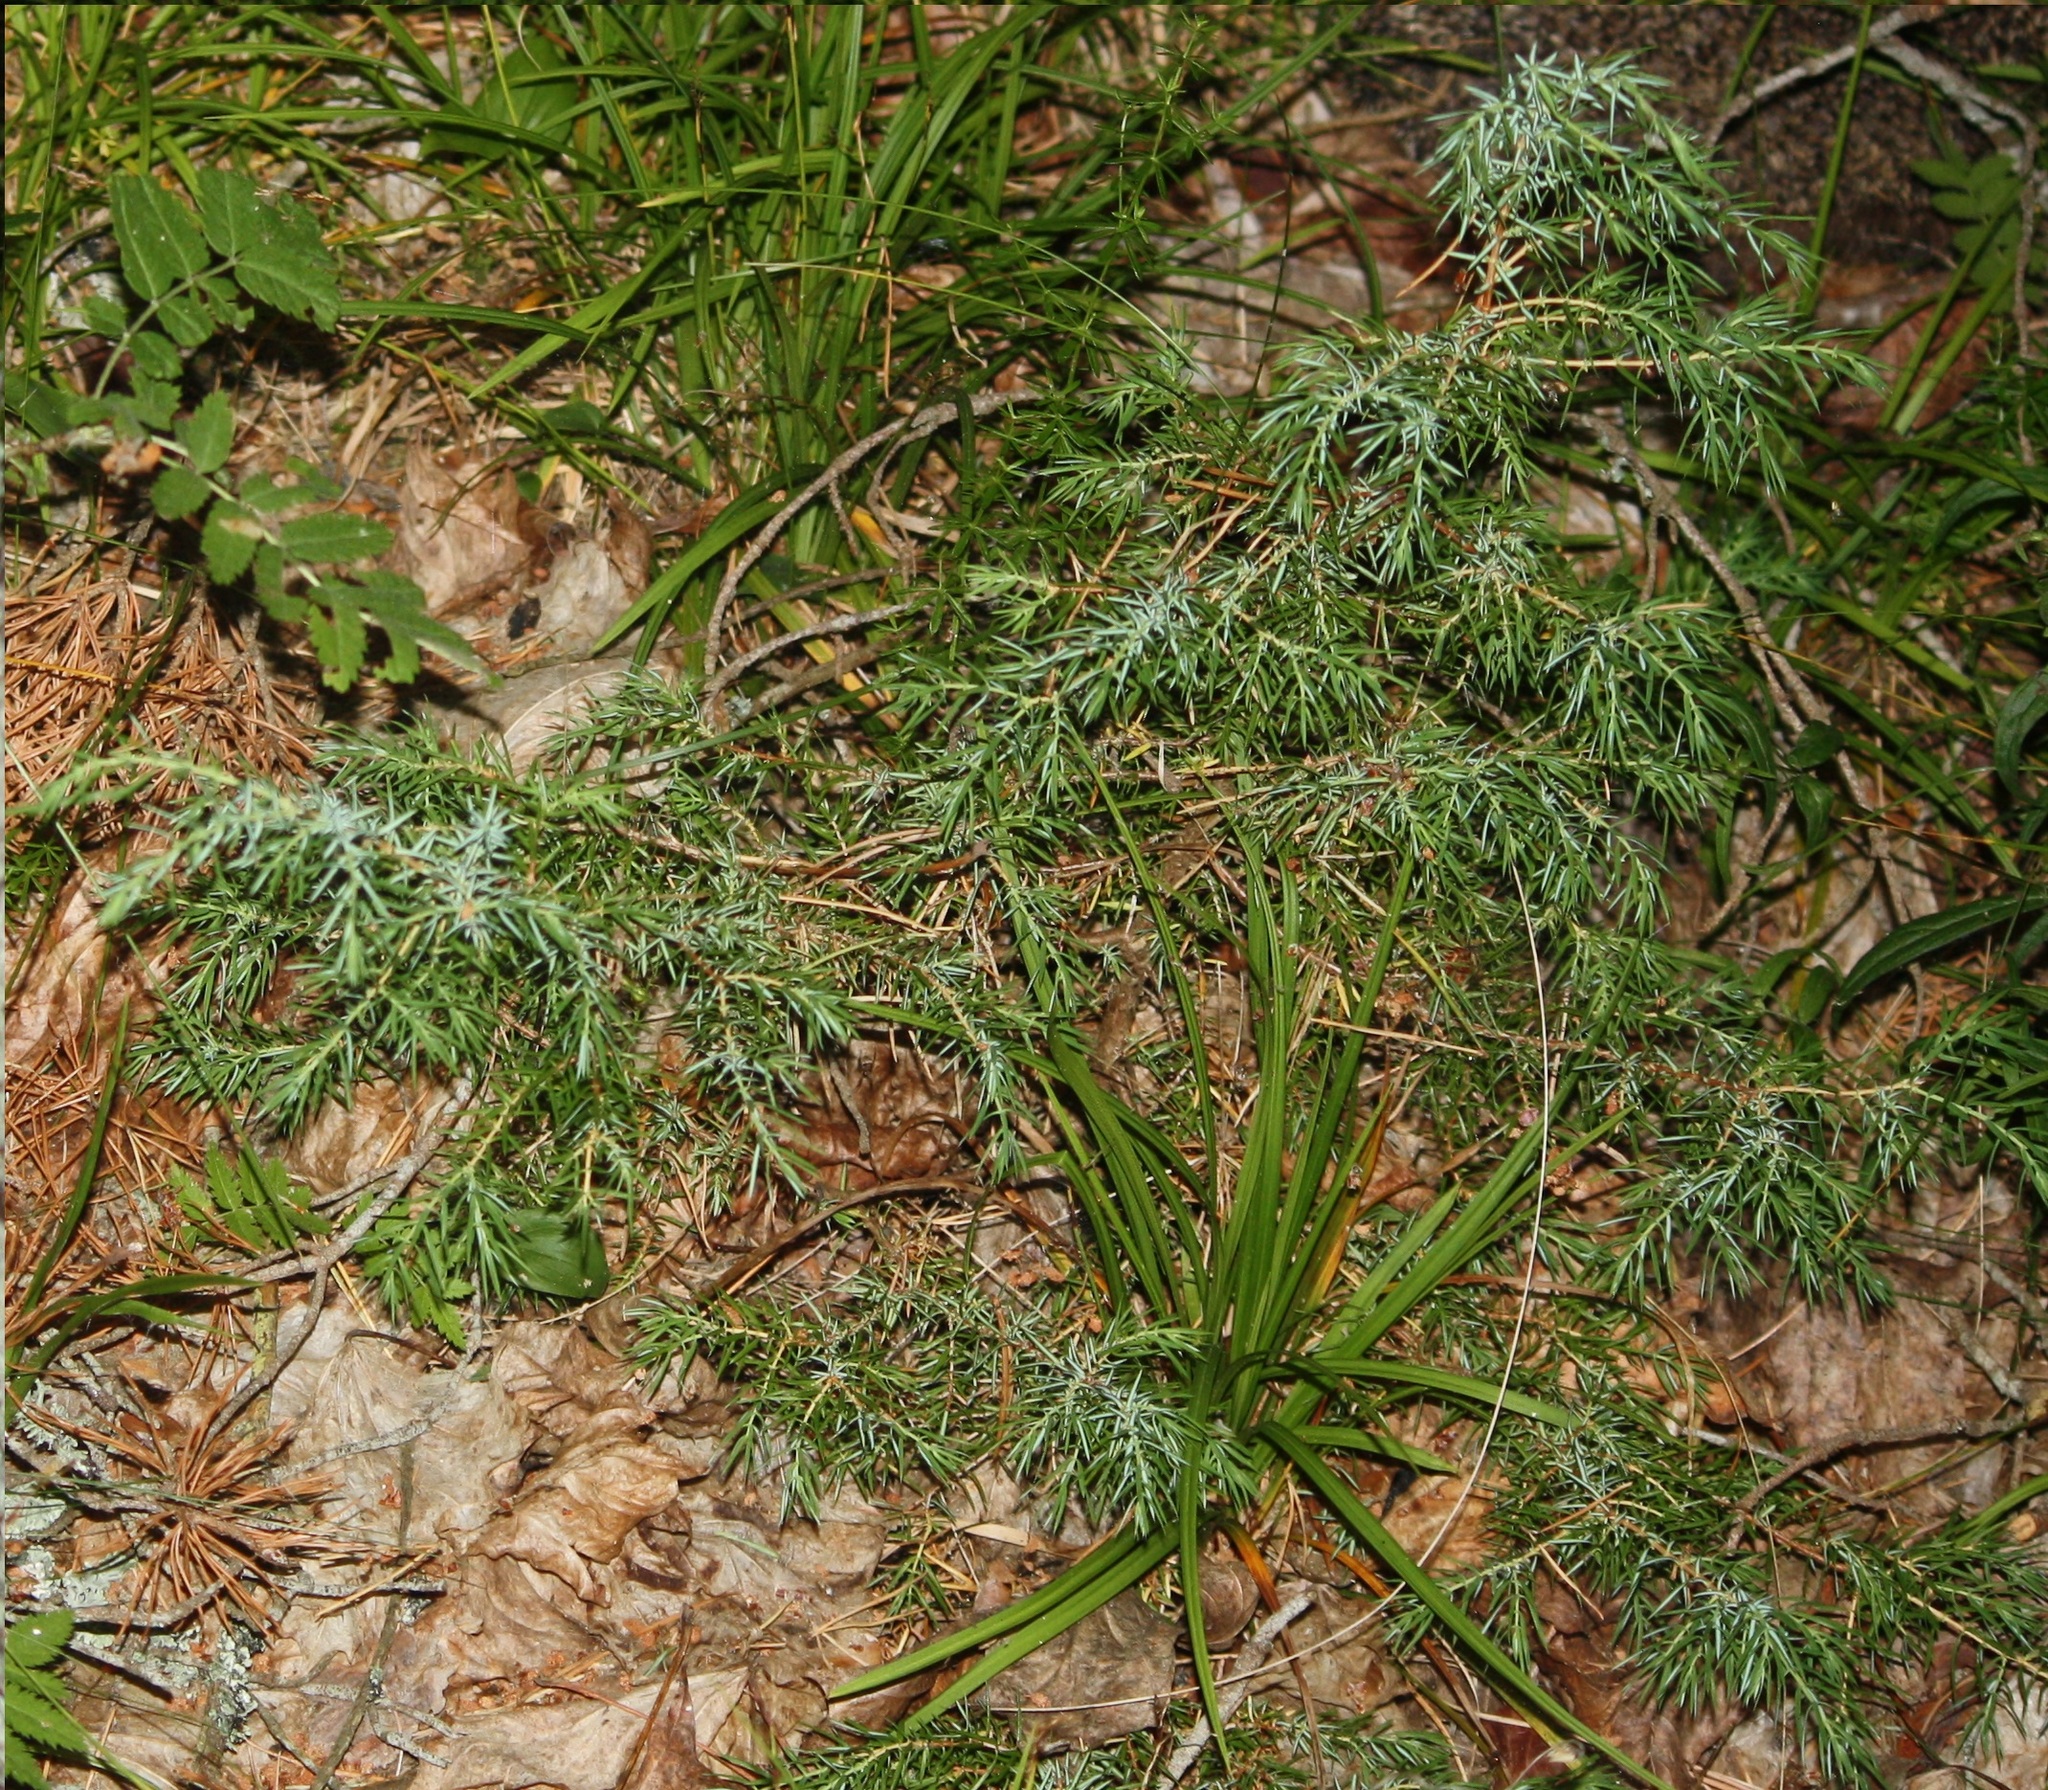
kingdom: Plantae
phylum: Tracheophyta
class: Pinopsida
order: Pinales
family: Cupressaceae
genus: Juniperus
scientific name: Juniperus communis
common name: Common juniper
